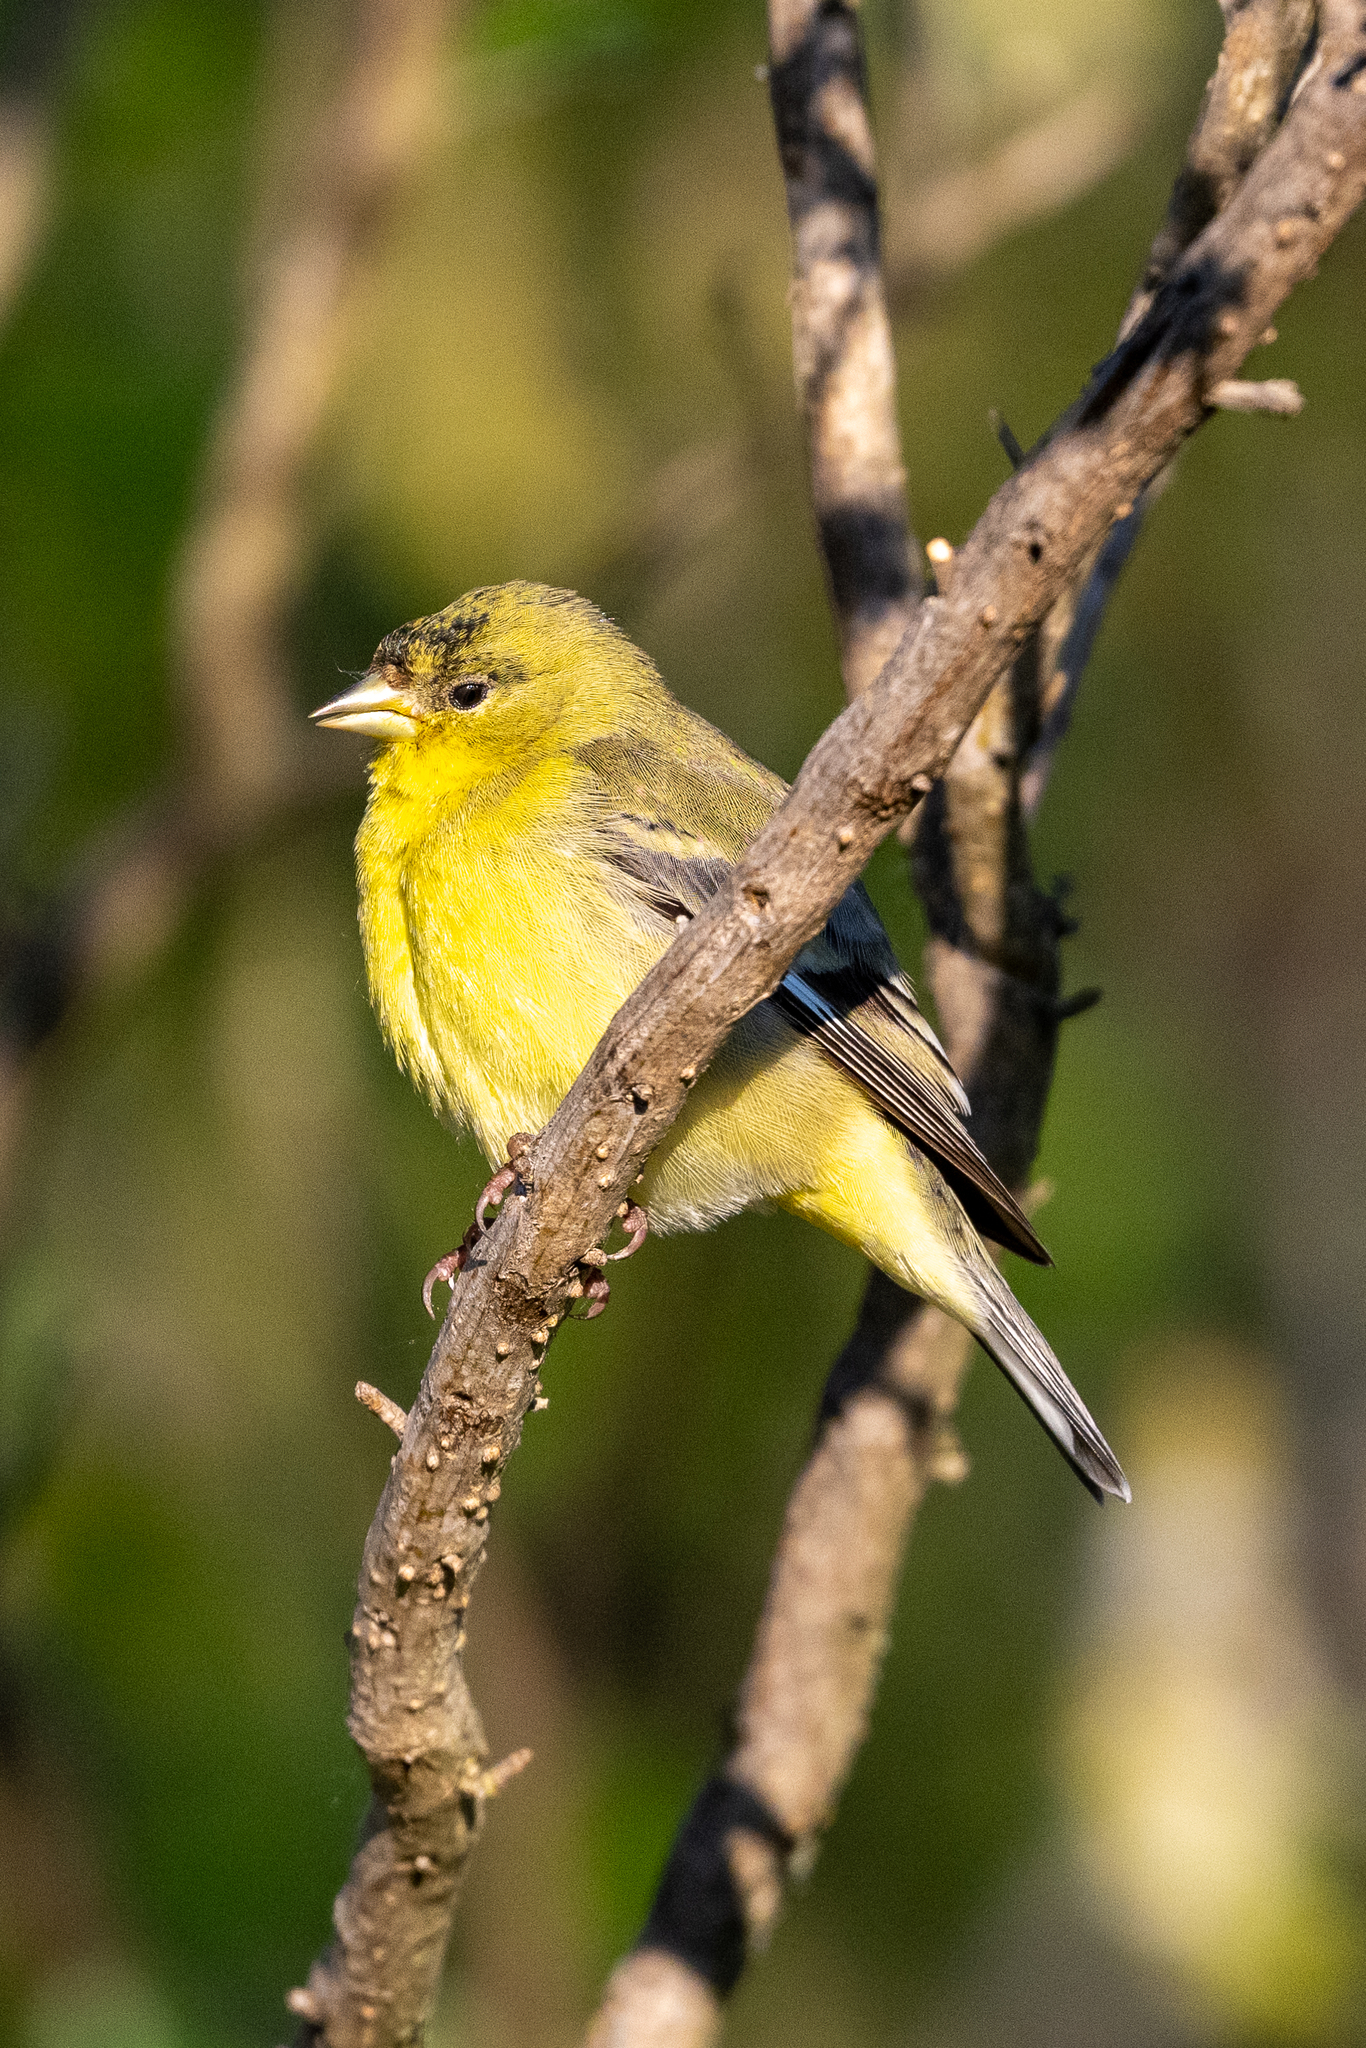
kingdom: Animalia
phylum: Chordata
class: Aves
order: Passeriformes
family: Fringillidae
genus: Spinus
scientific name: Spinus psaltria
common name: Lesser goldfinch
